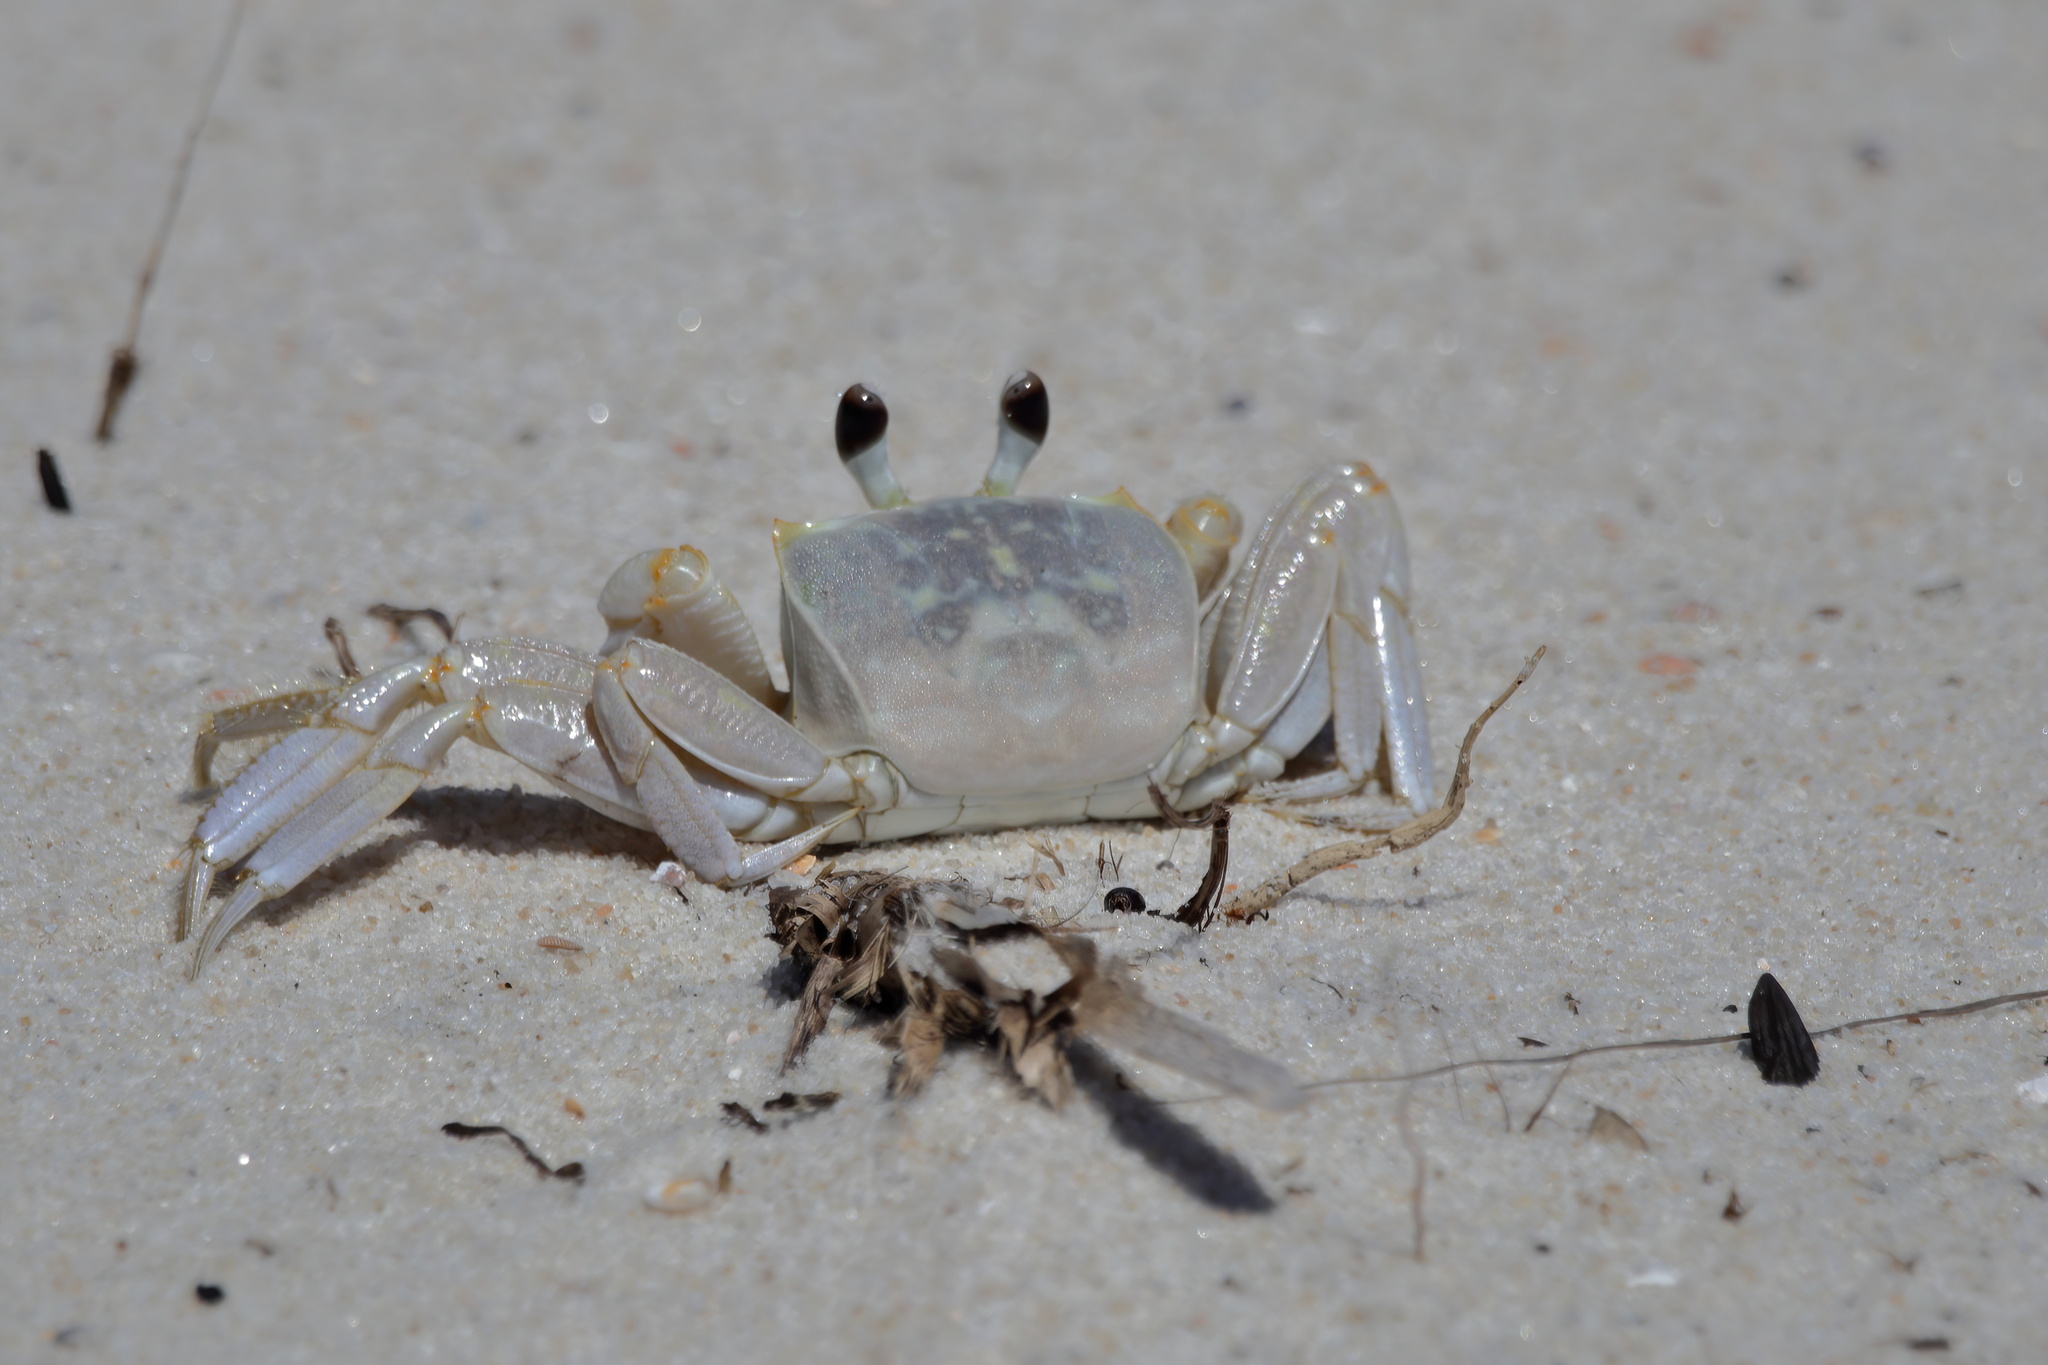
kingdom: Animalia
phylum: Arthropoda
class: Malacostraca
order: Decapoda
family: Ocypodidae
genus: Ocypode
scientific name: Ocypode quadrata
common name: Ghost crab
